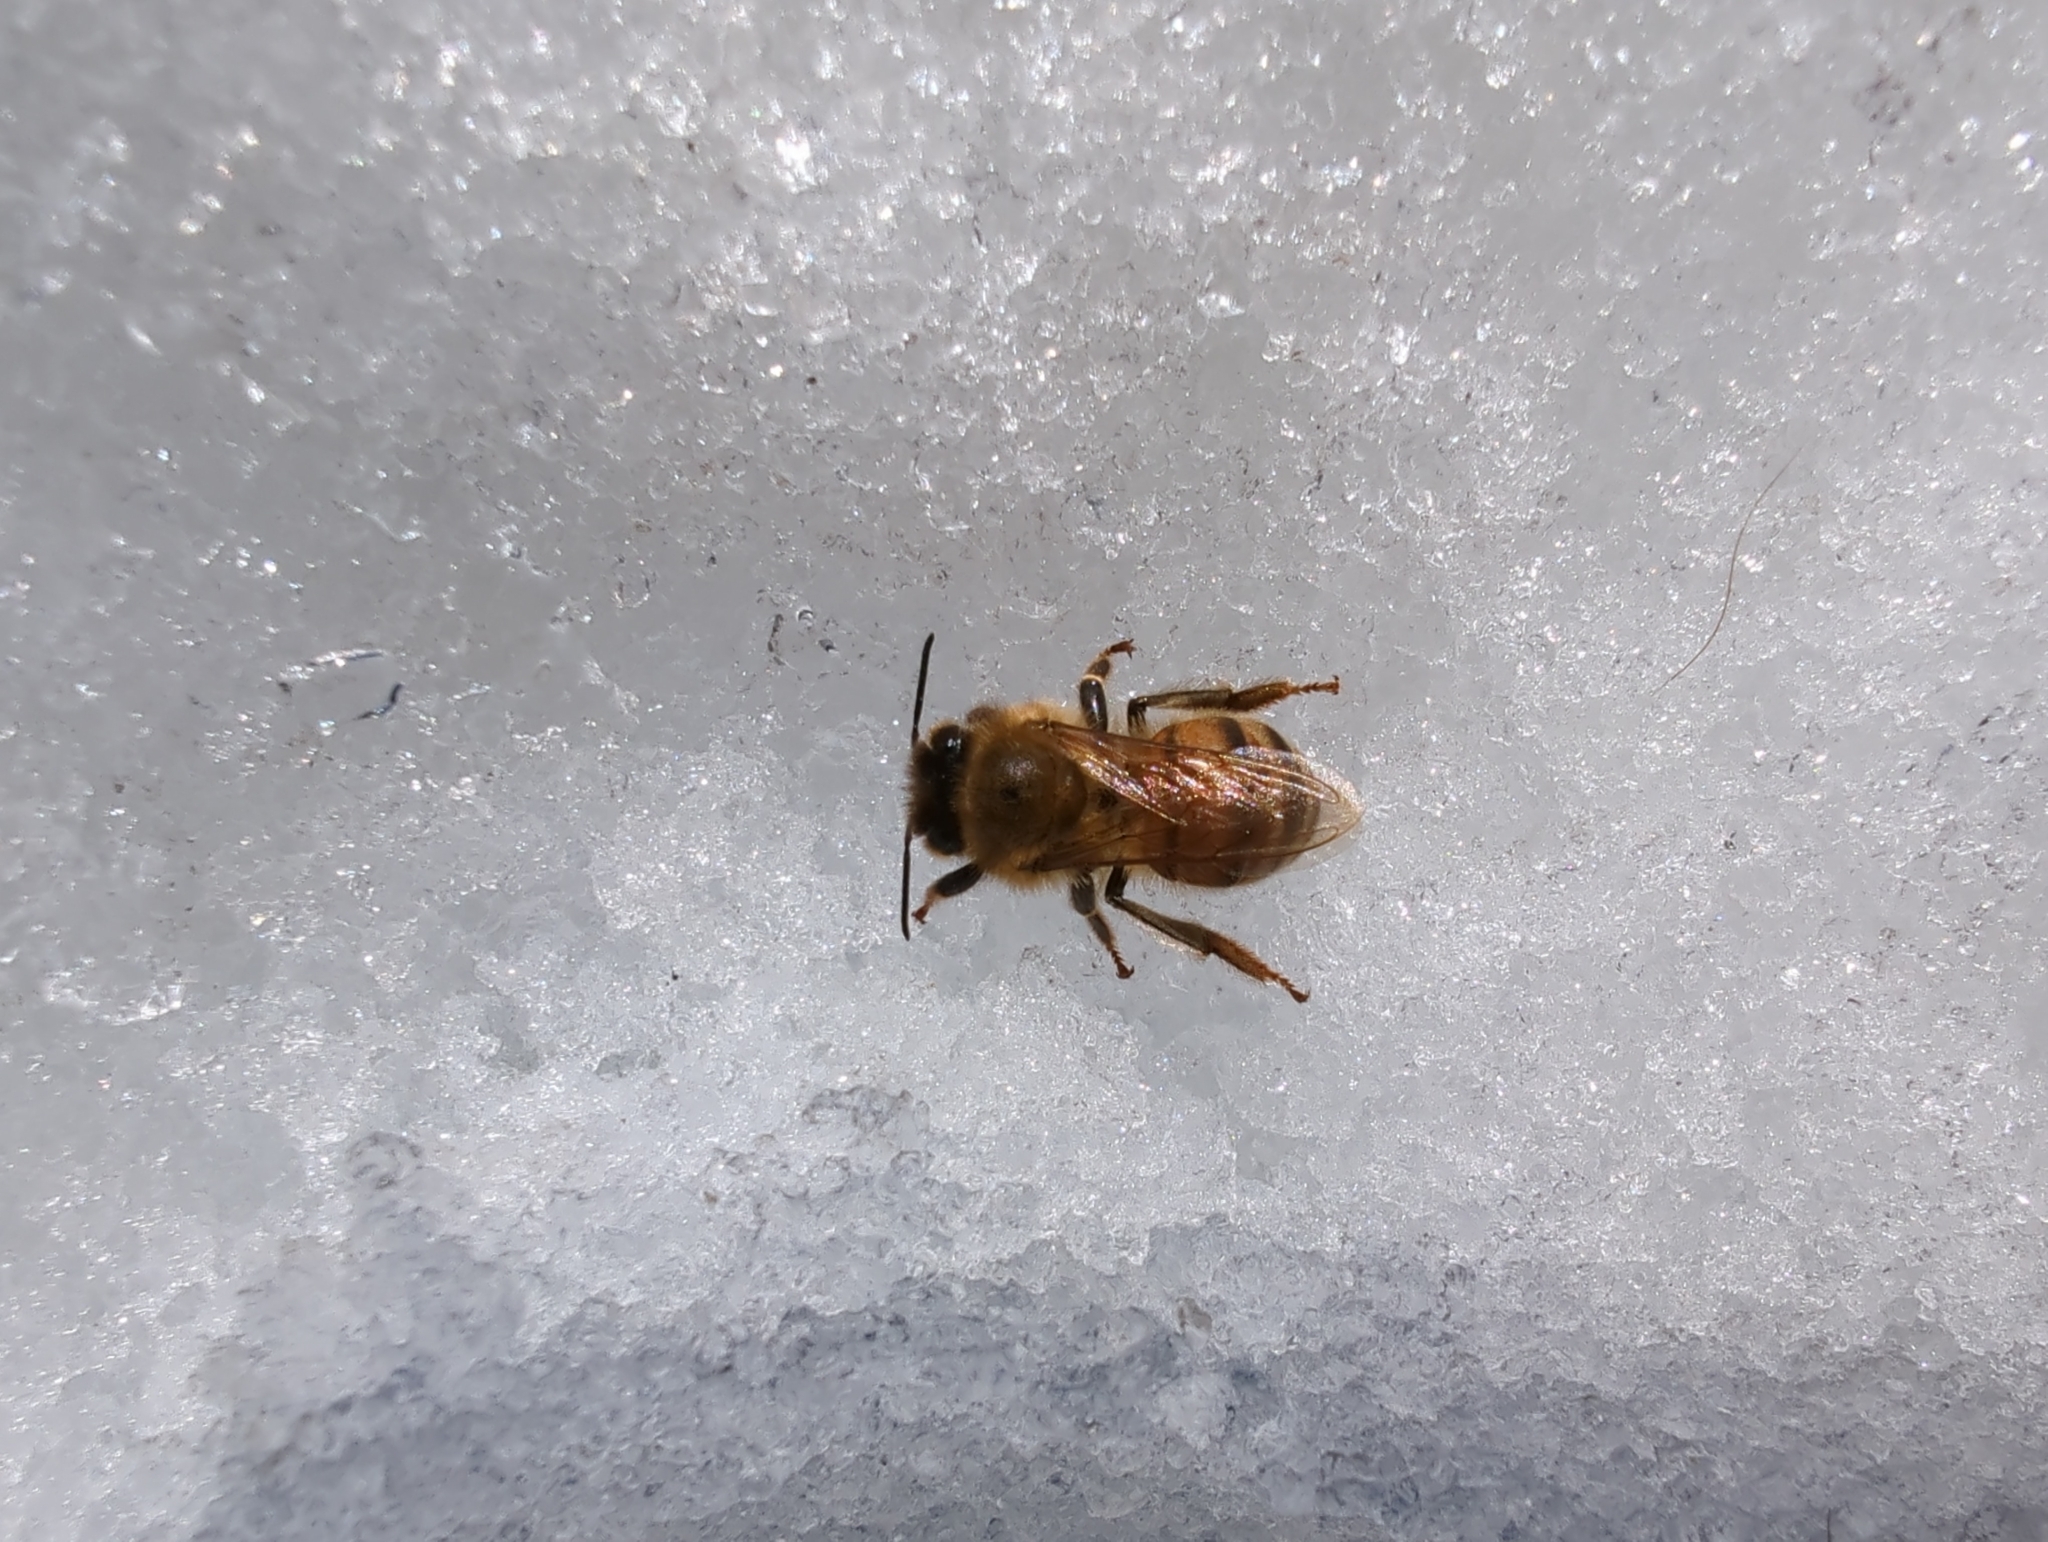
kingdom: Animalia
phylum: Arthropoda
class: Insecta
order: Hymenoptera
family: Apidae
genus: Apis
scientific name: Apis mellifera
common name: Honey bee
